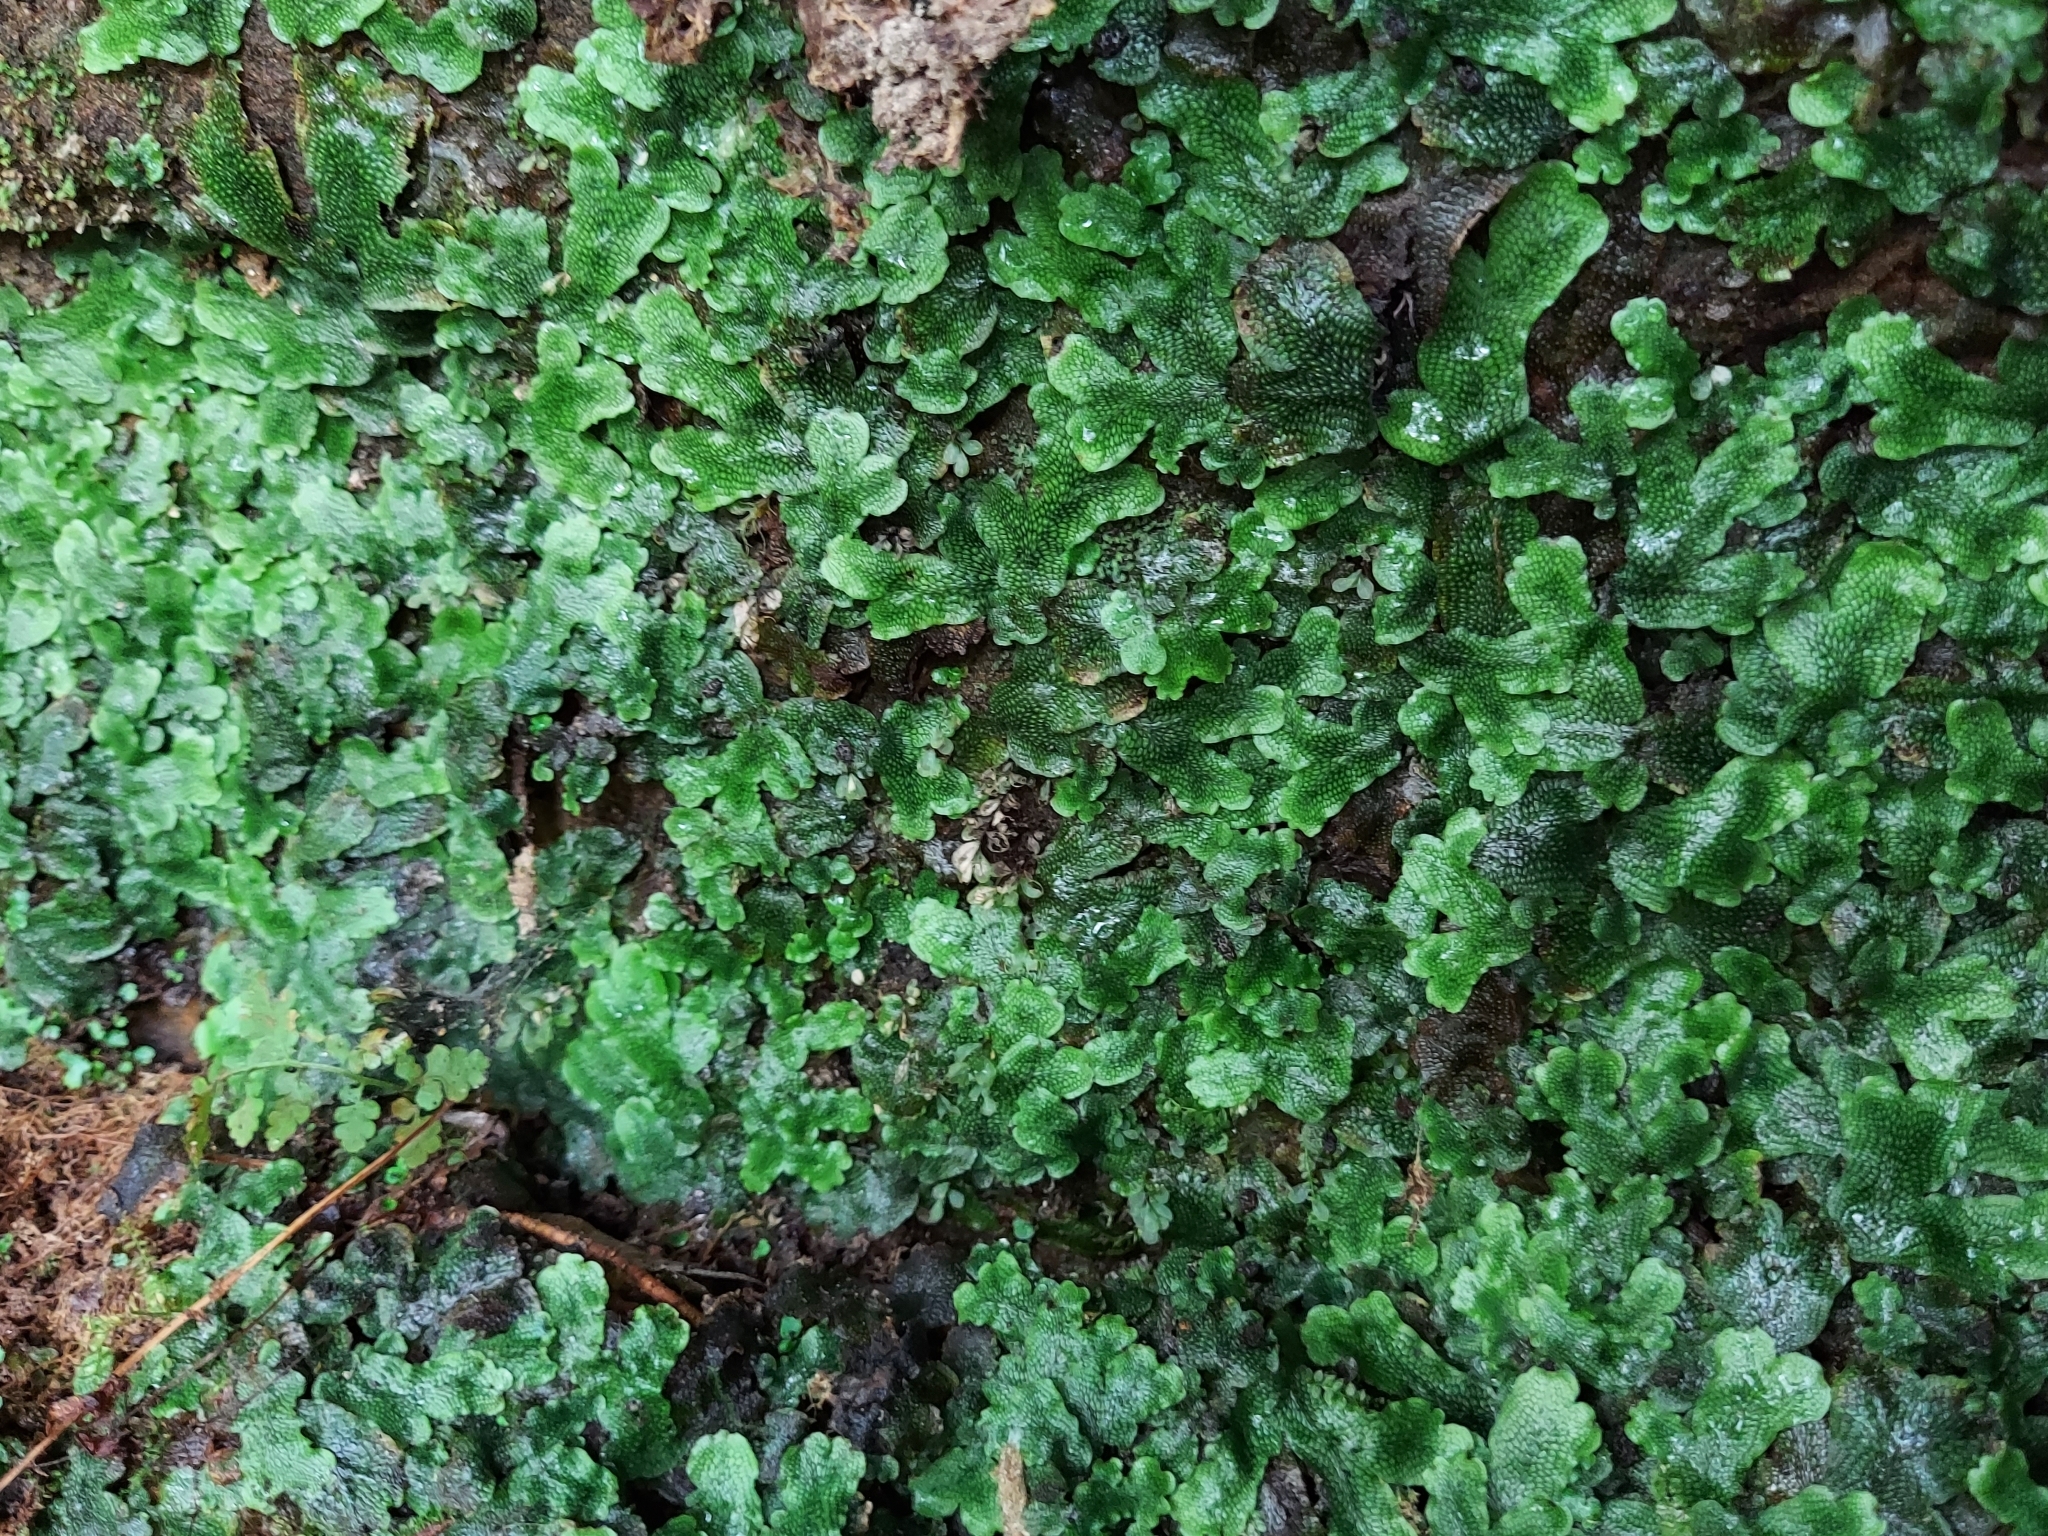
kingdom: Plantae
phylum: Marchantiophyta
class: Marchantiopsida
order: Marchantiales
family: Conocephalaceae
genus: Conocephalum
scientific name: Conocephalum salebrosum
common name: Cat-tongue liverwort
